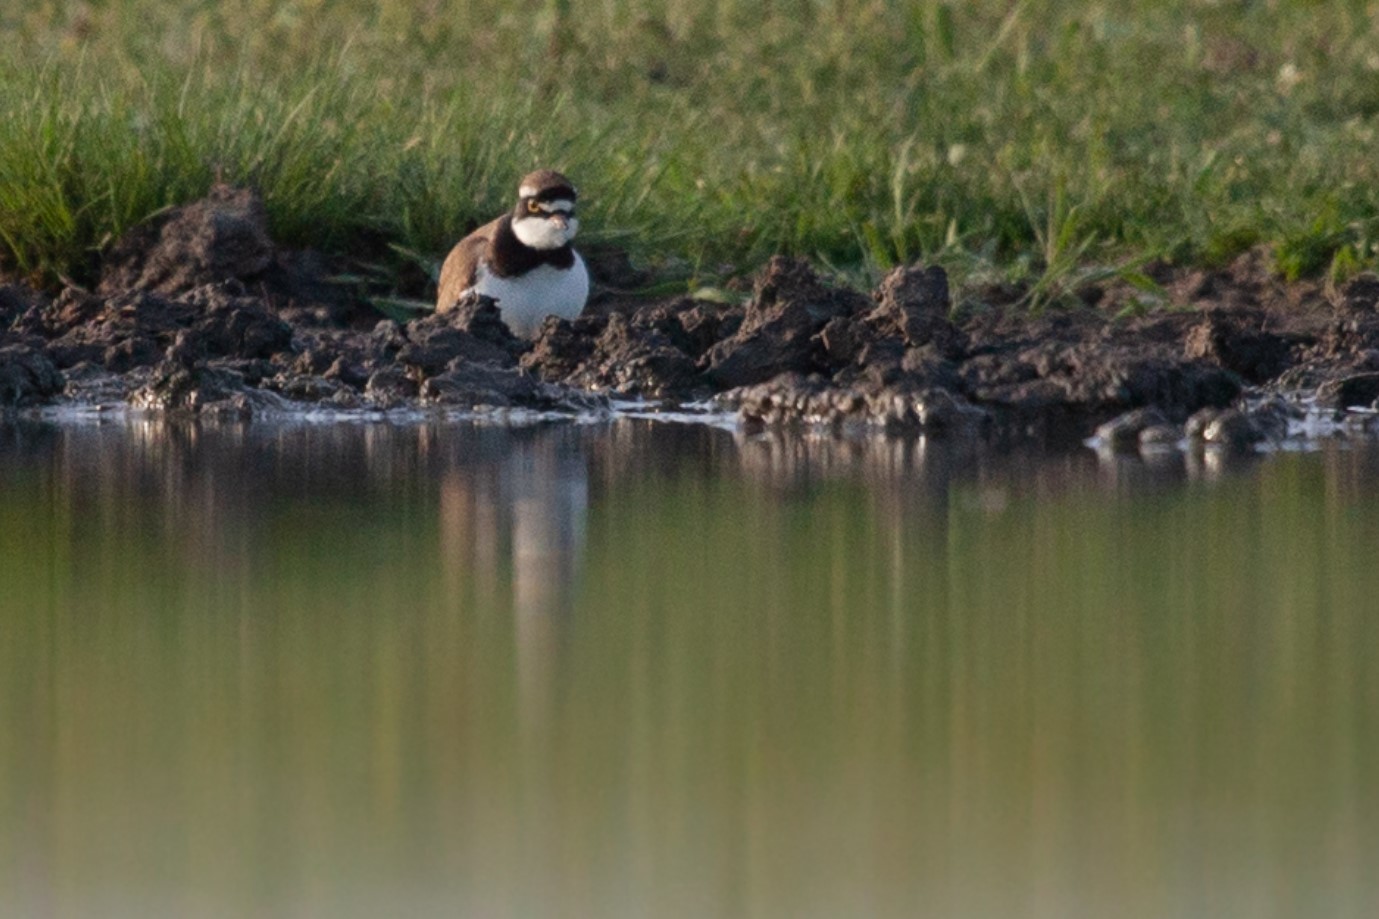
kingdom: Animalia
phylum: Chordata
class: Aves
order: Charadriiformes
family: Charadriidae
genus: Charadrius
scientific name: Charadrius dubius
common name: Little ringed plover
